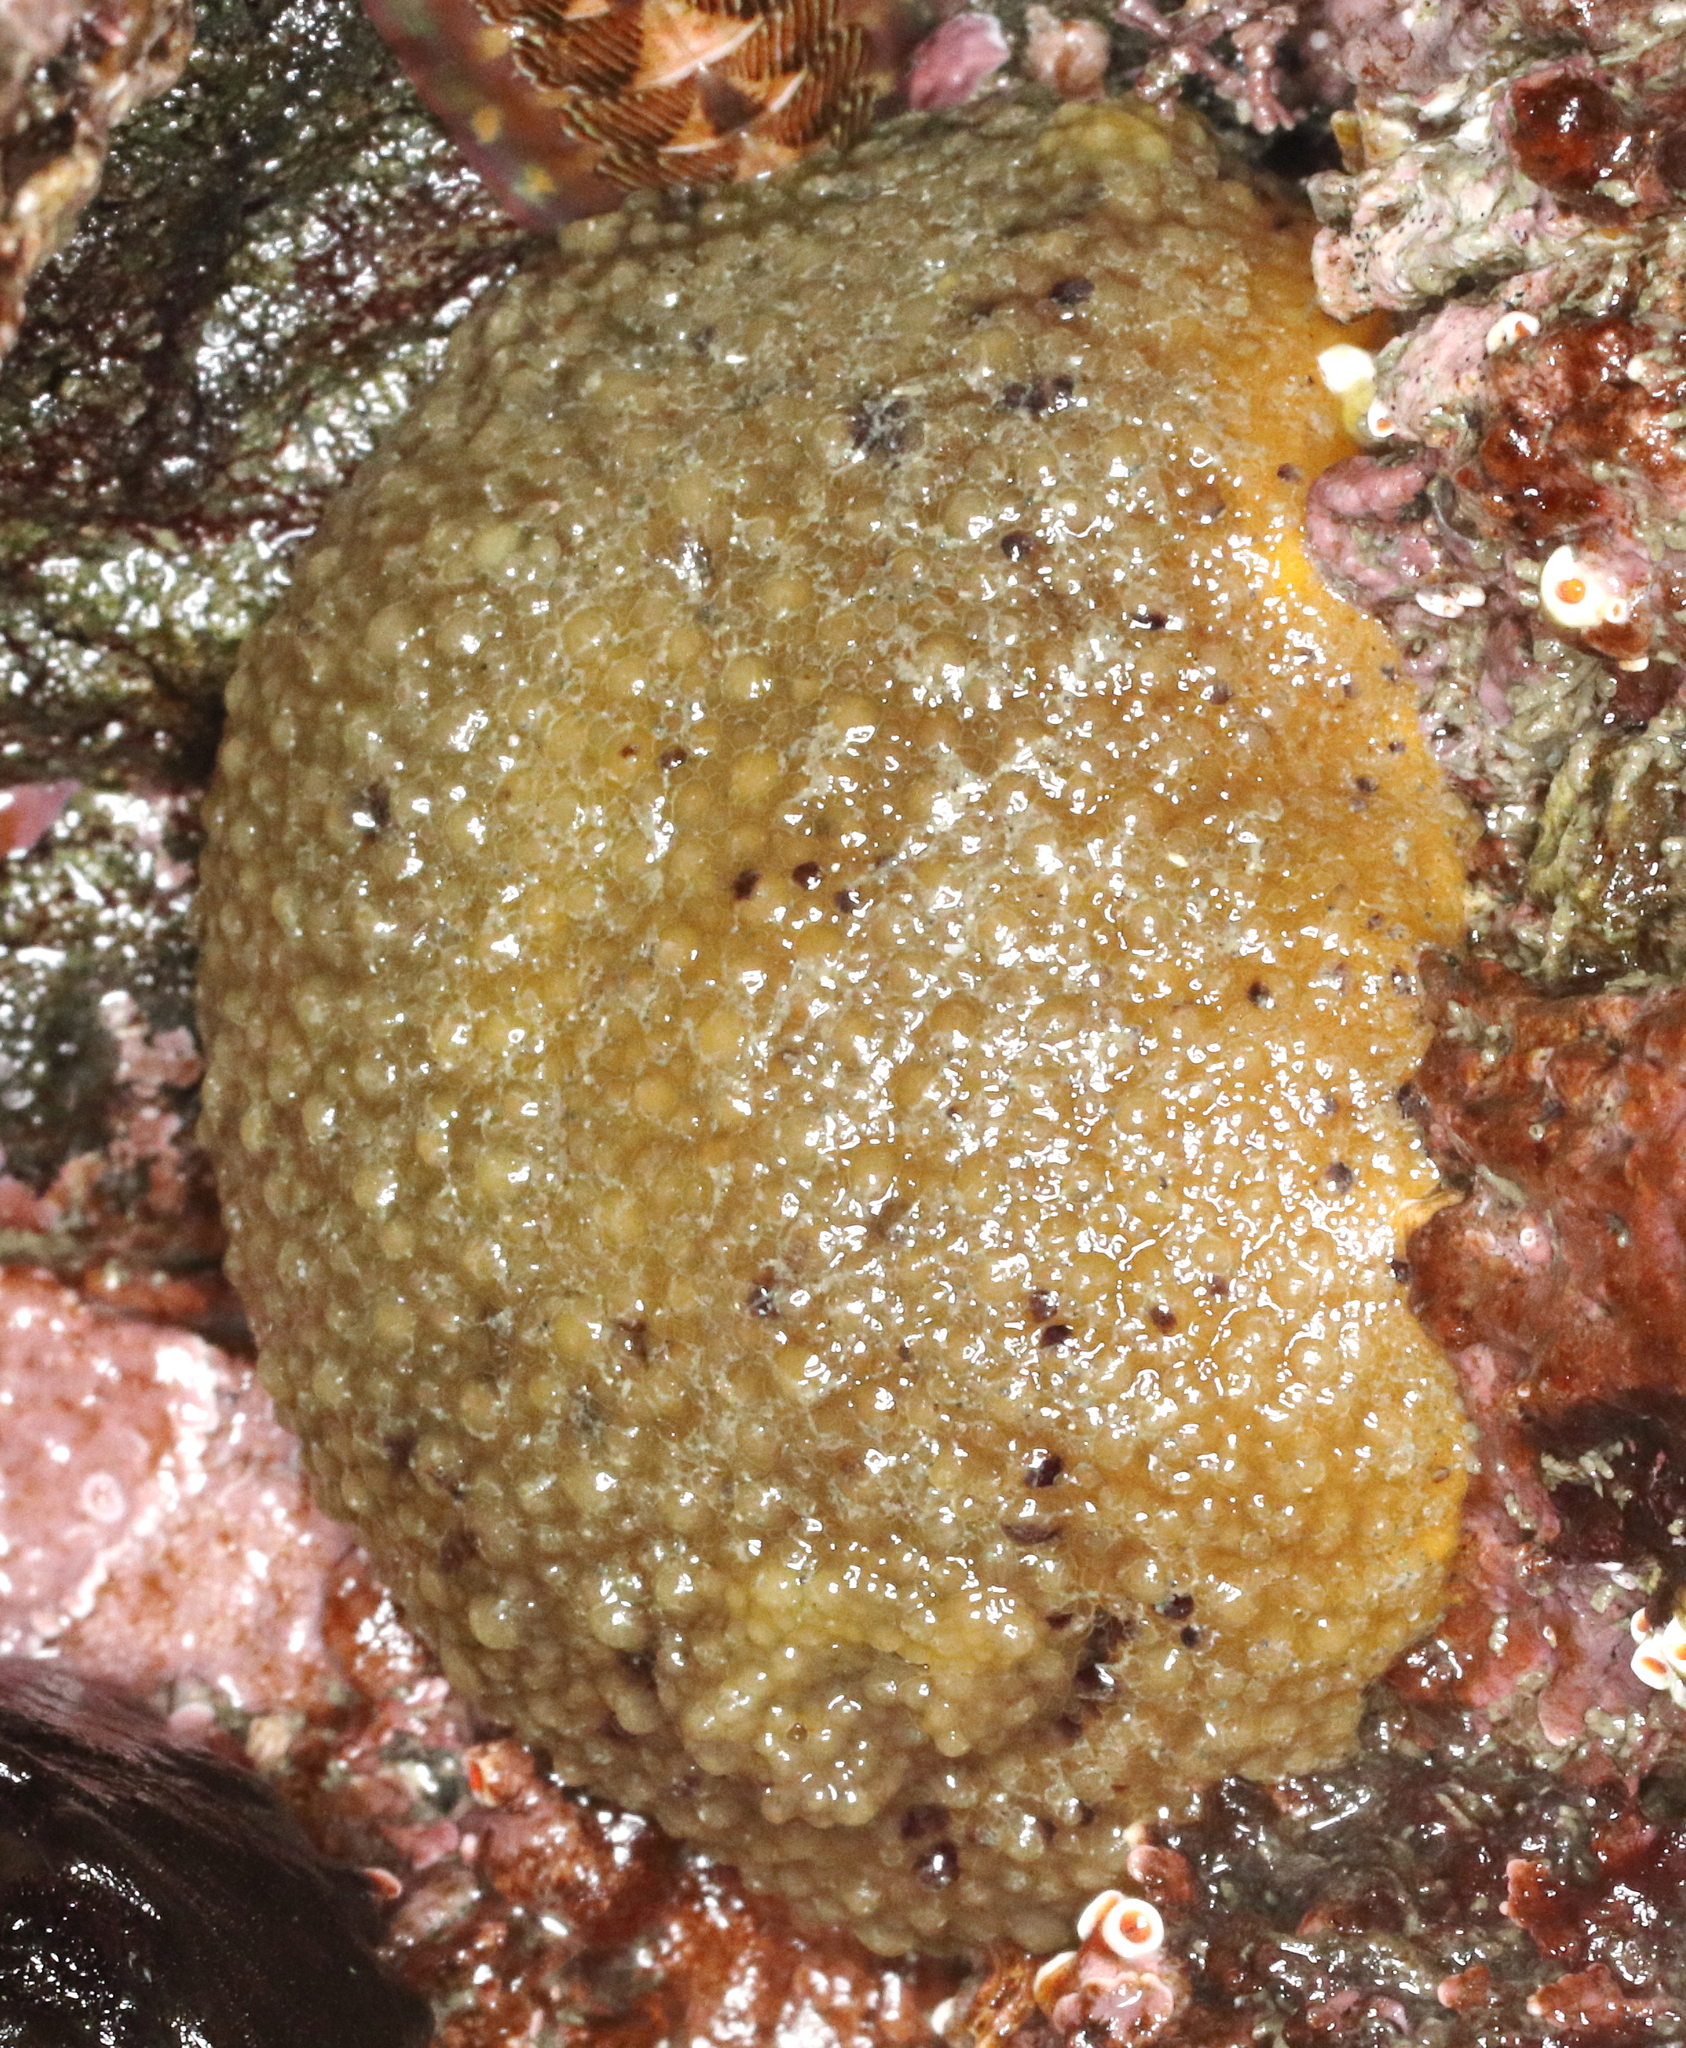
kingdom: Animalia
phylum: Mollusca
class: Gastropoda
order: Nudibranchia
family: Dorididae
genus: Doris
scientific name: Doris montereyensis
